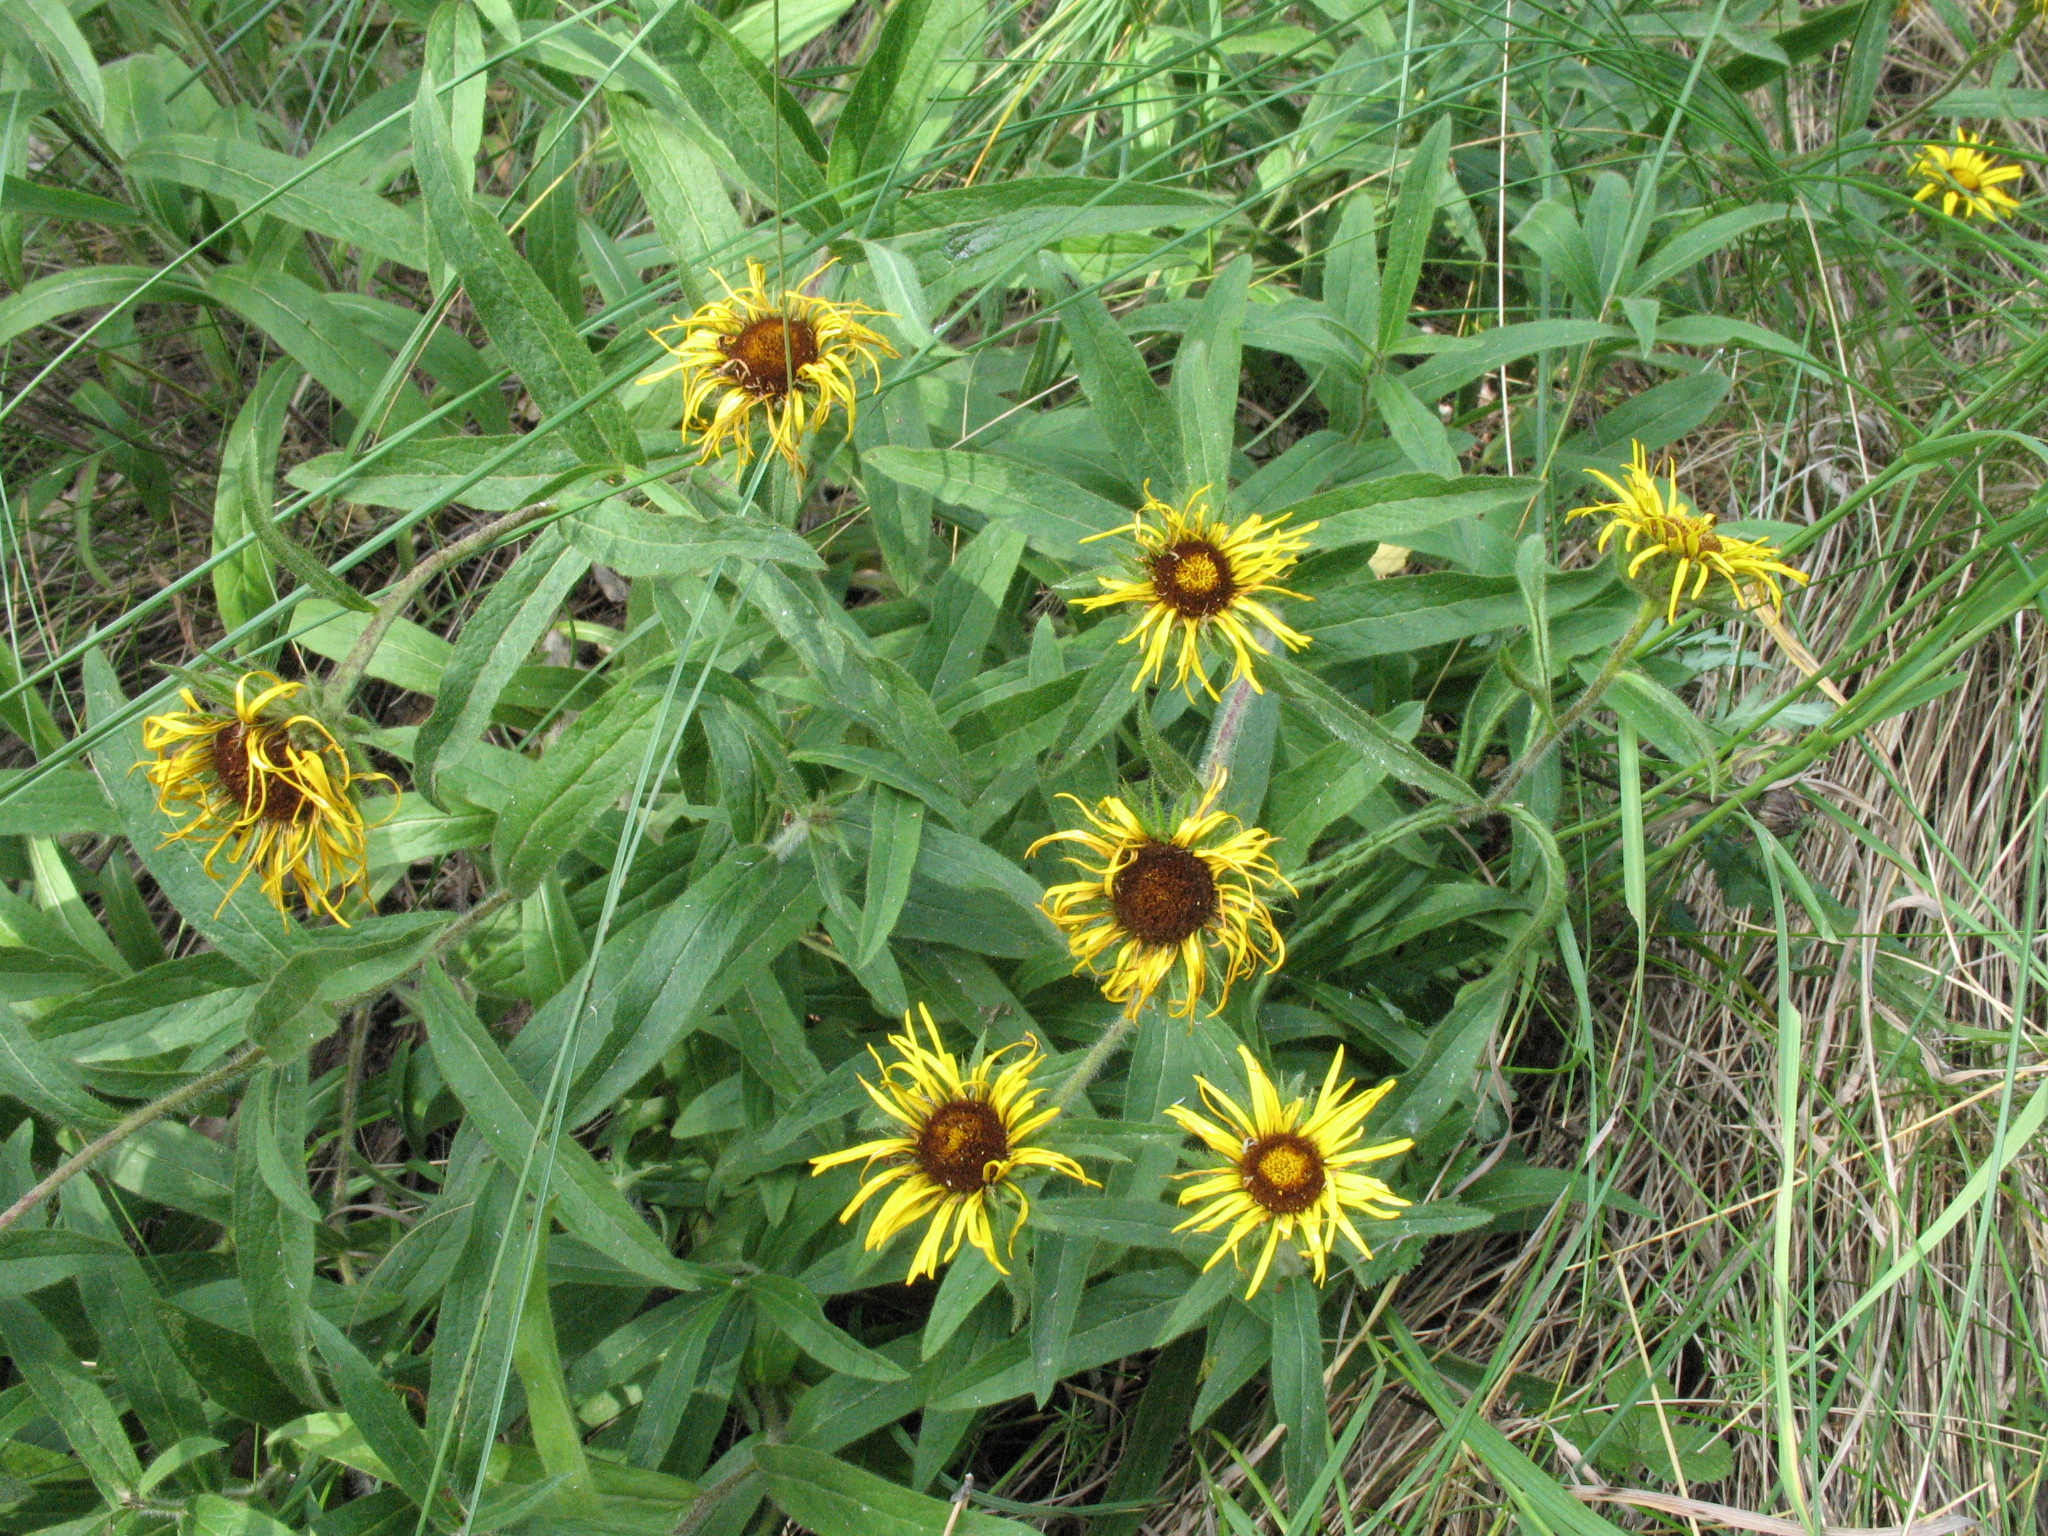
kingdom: Plantae
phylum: Tracheophyta
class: Magnoliopsida
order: Asterales
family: Asteraceae
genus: Pentanema
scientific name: Pentanema hirtum
